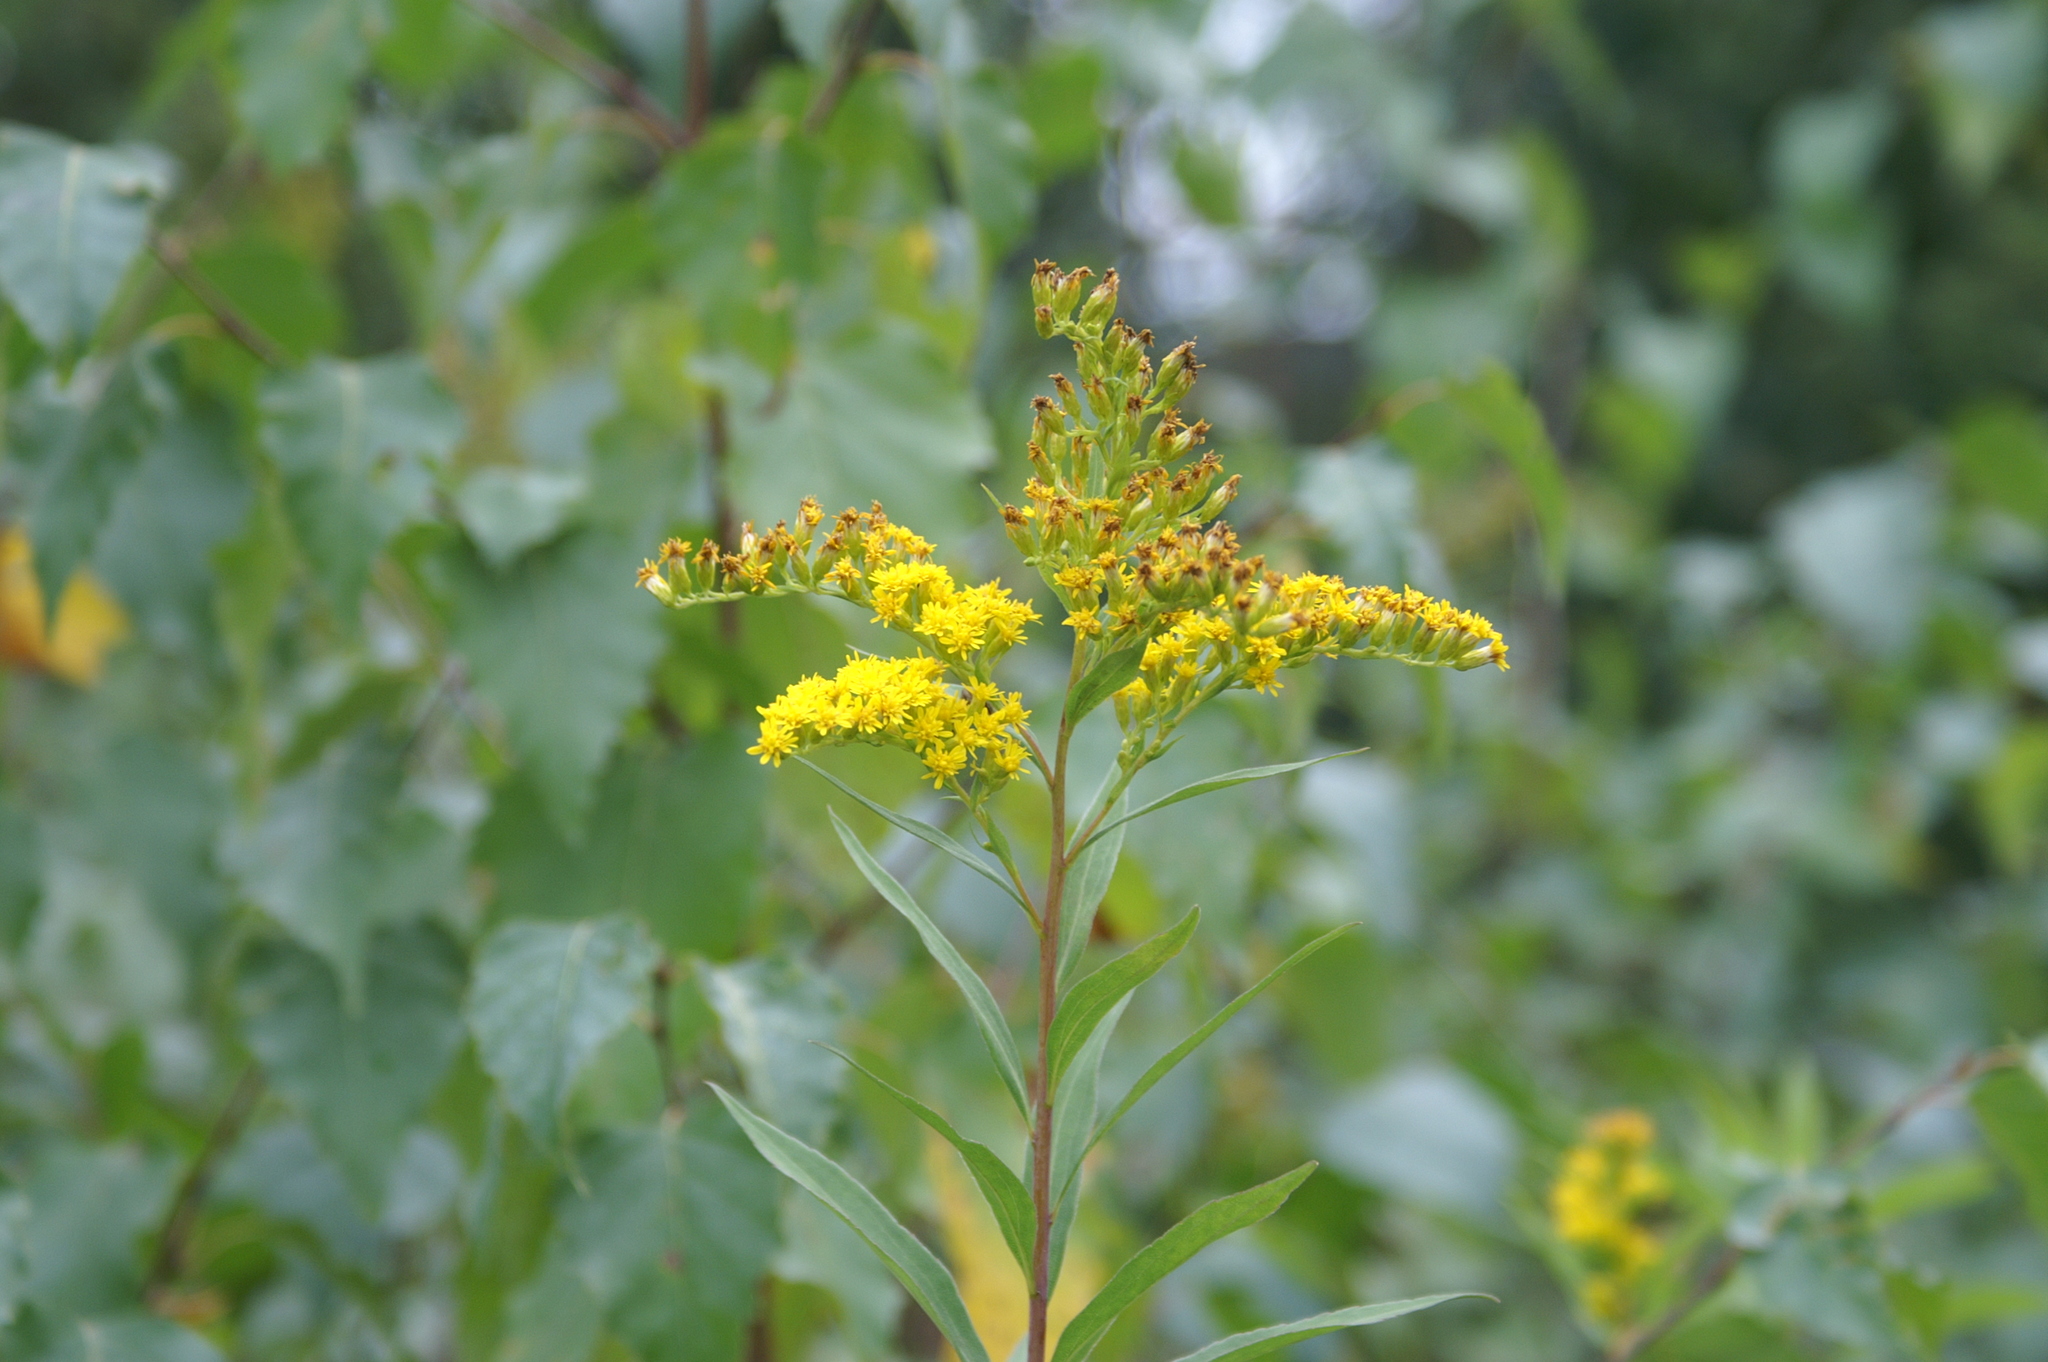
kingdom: Plantae
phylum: Tracheophyta
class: Magnoliopsida
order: Asterales
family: Asteraceae
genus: Solidago
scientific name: Solidago gigantea
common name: Giant goldenrod
